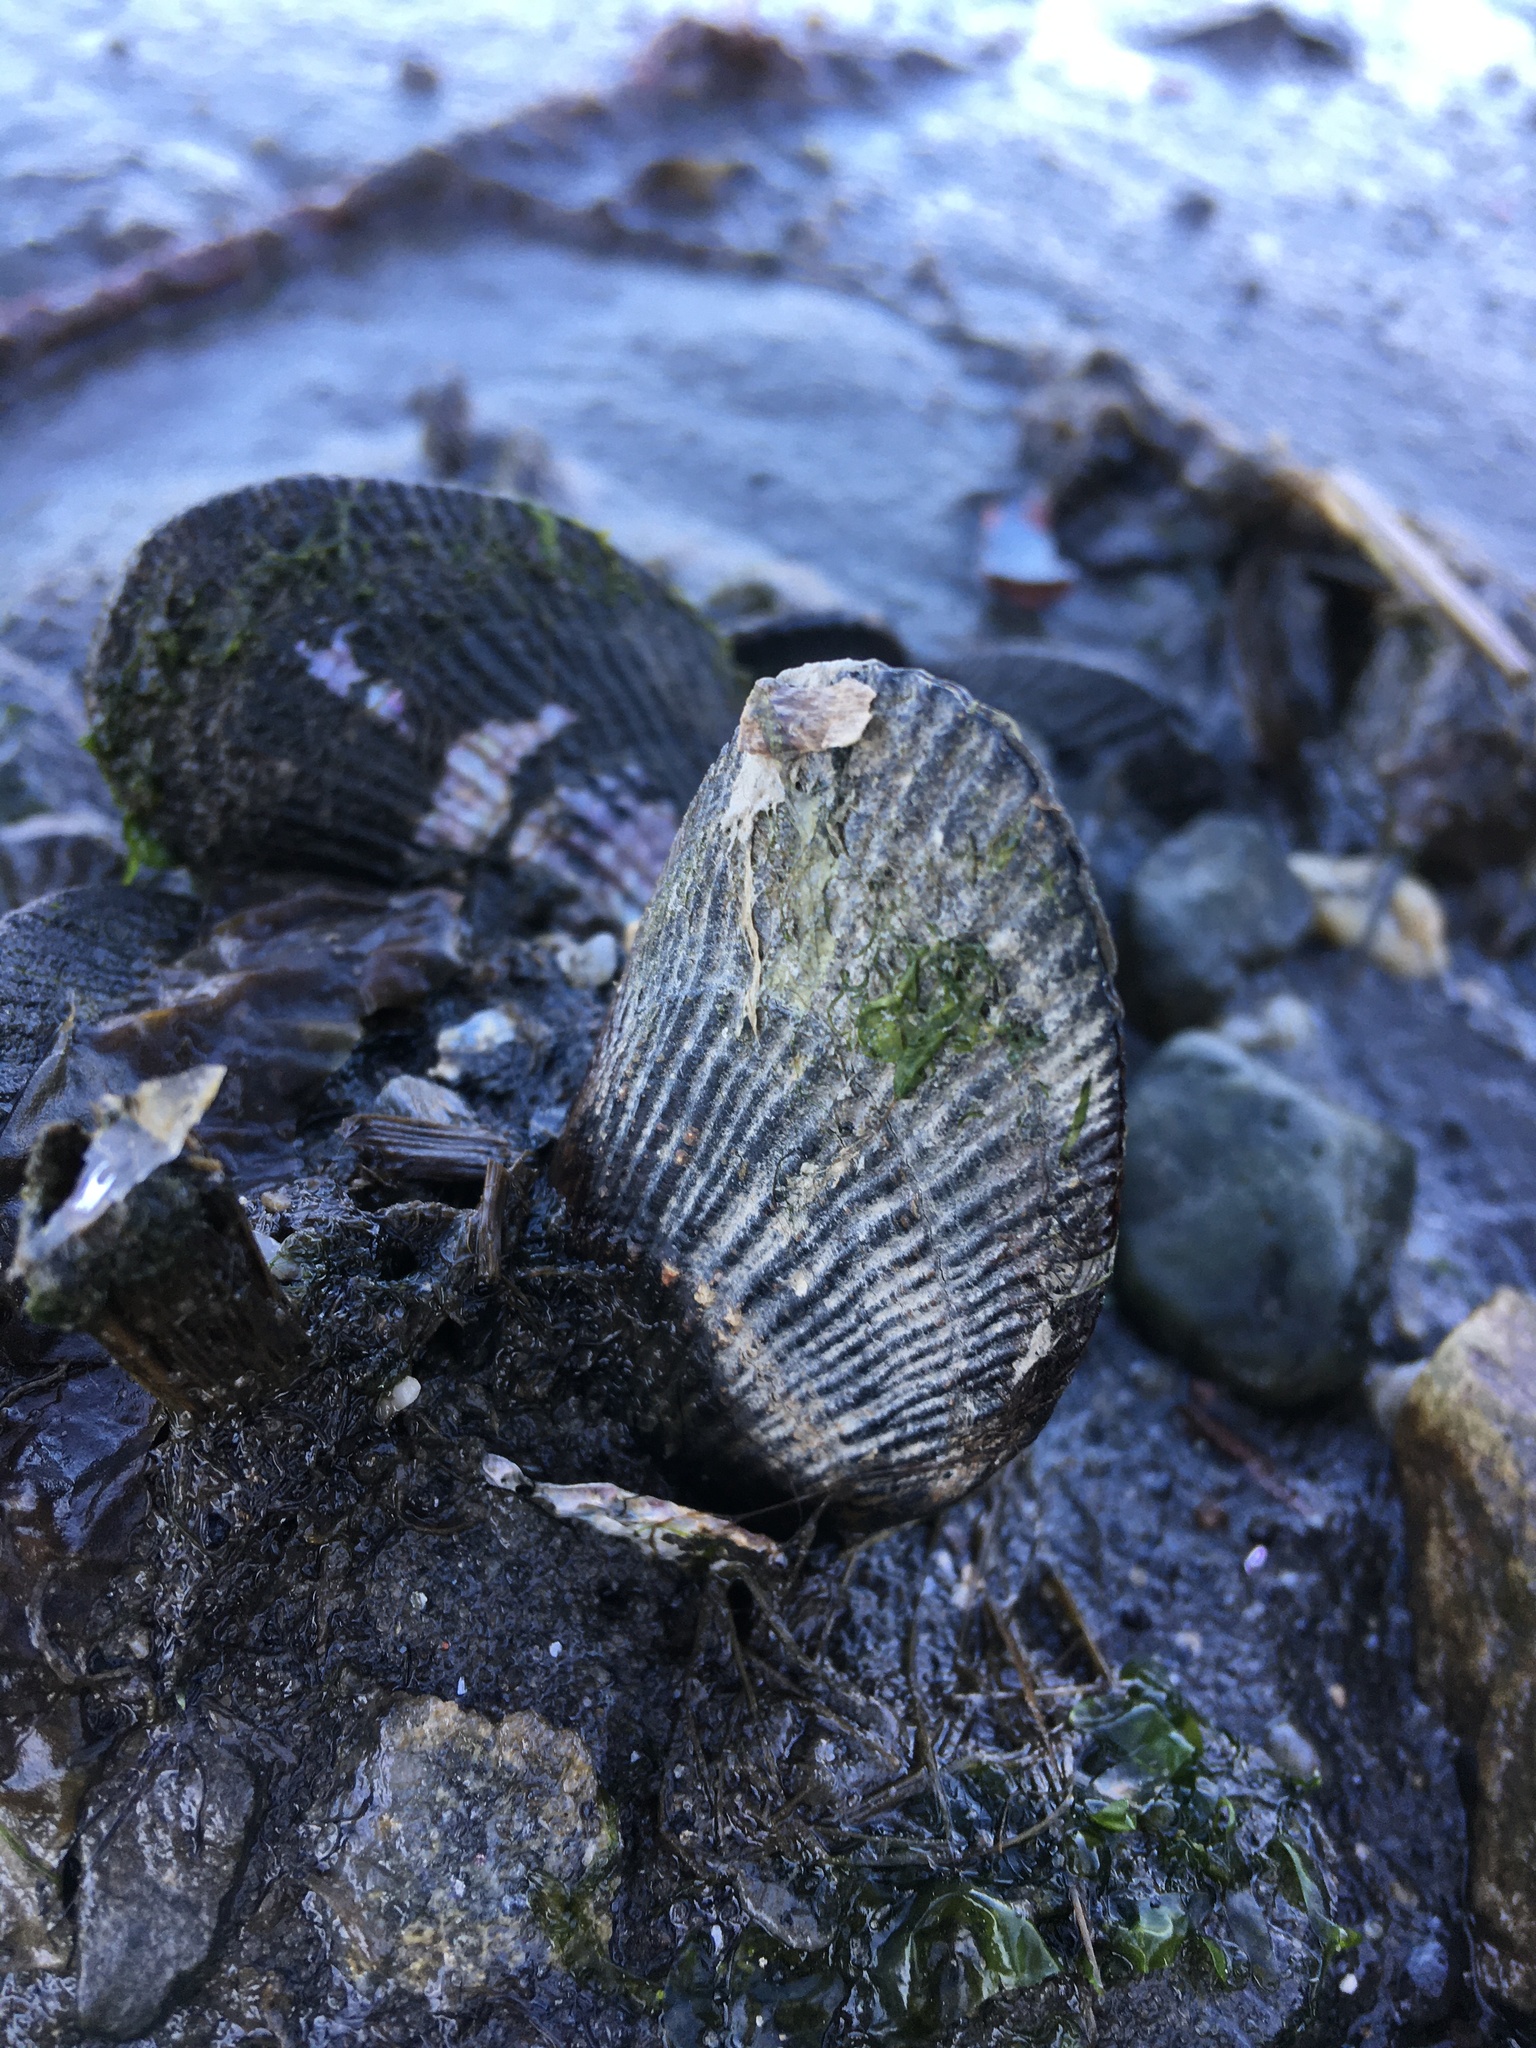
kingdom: Animalia
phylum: Mollusca
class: Bivalvia
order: Mytilida
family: Mytilidae
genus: Geukensia
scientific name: Geukensia demissa
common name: Ribbed mussel
